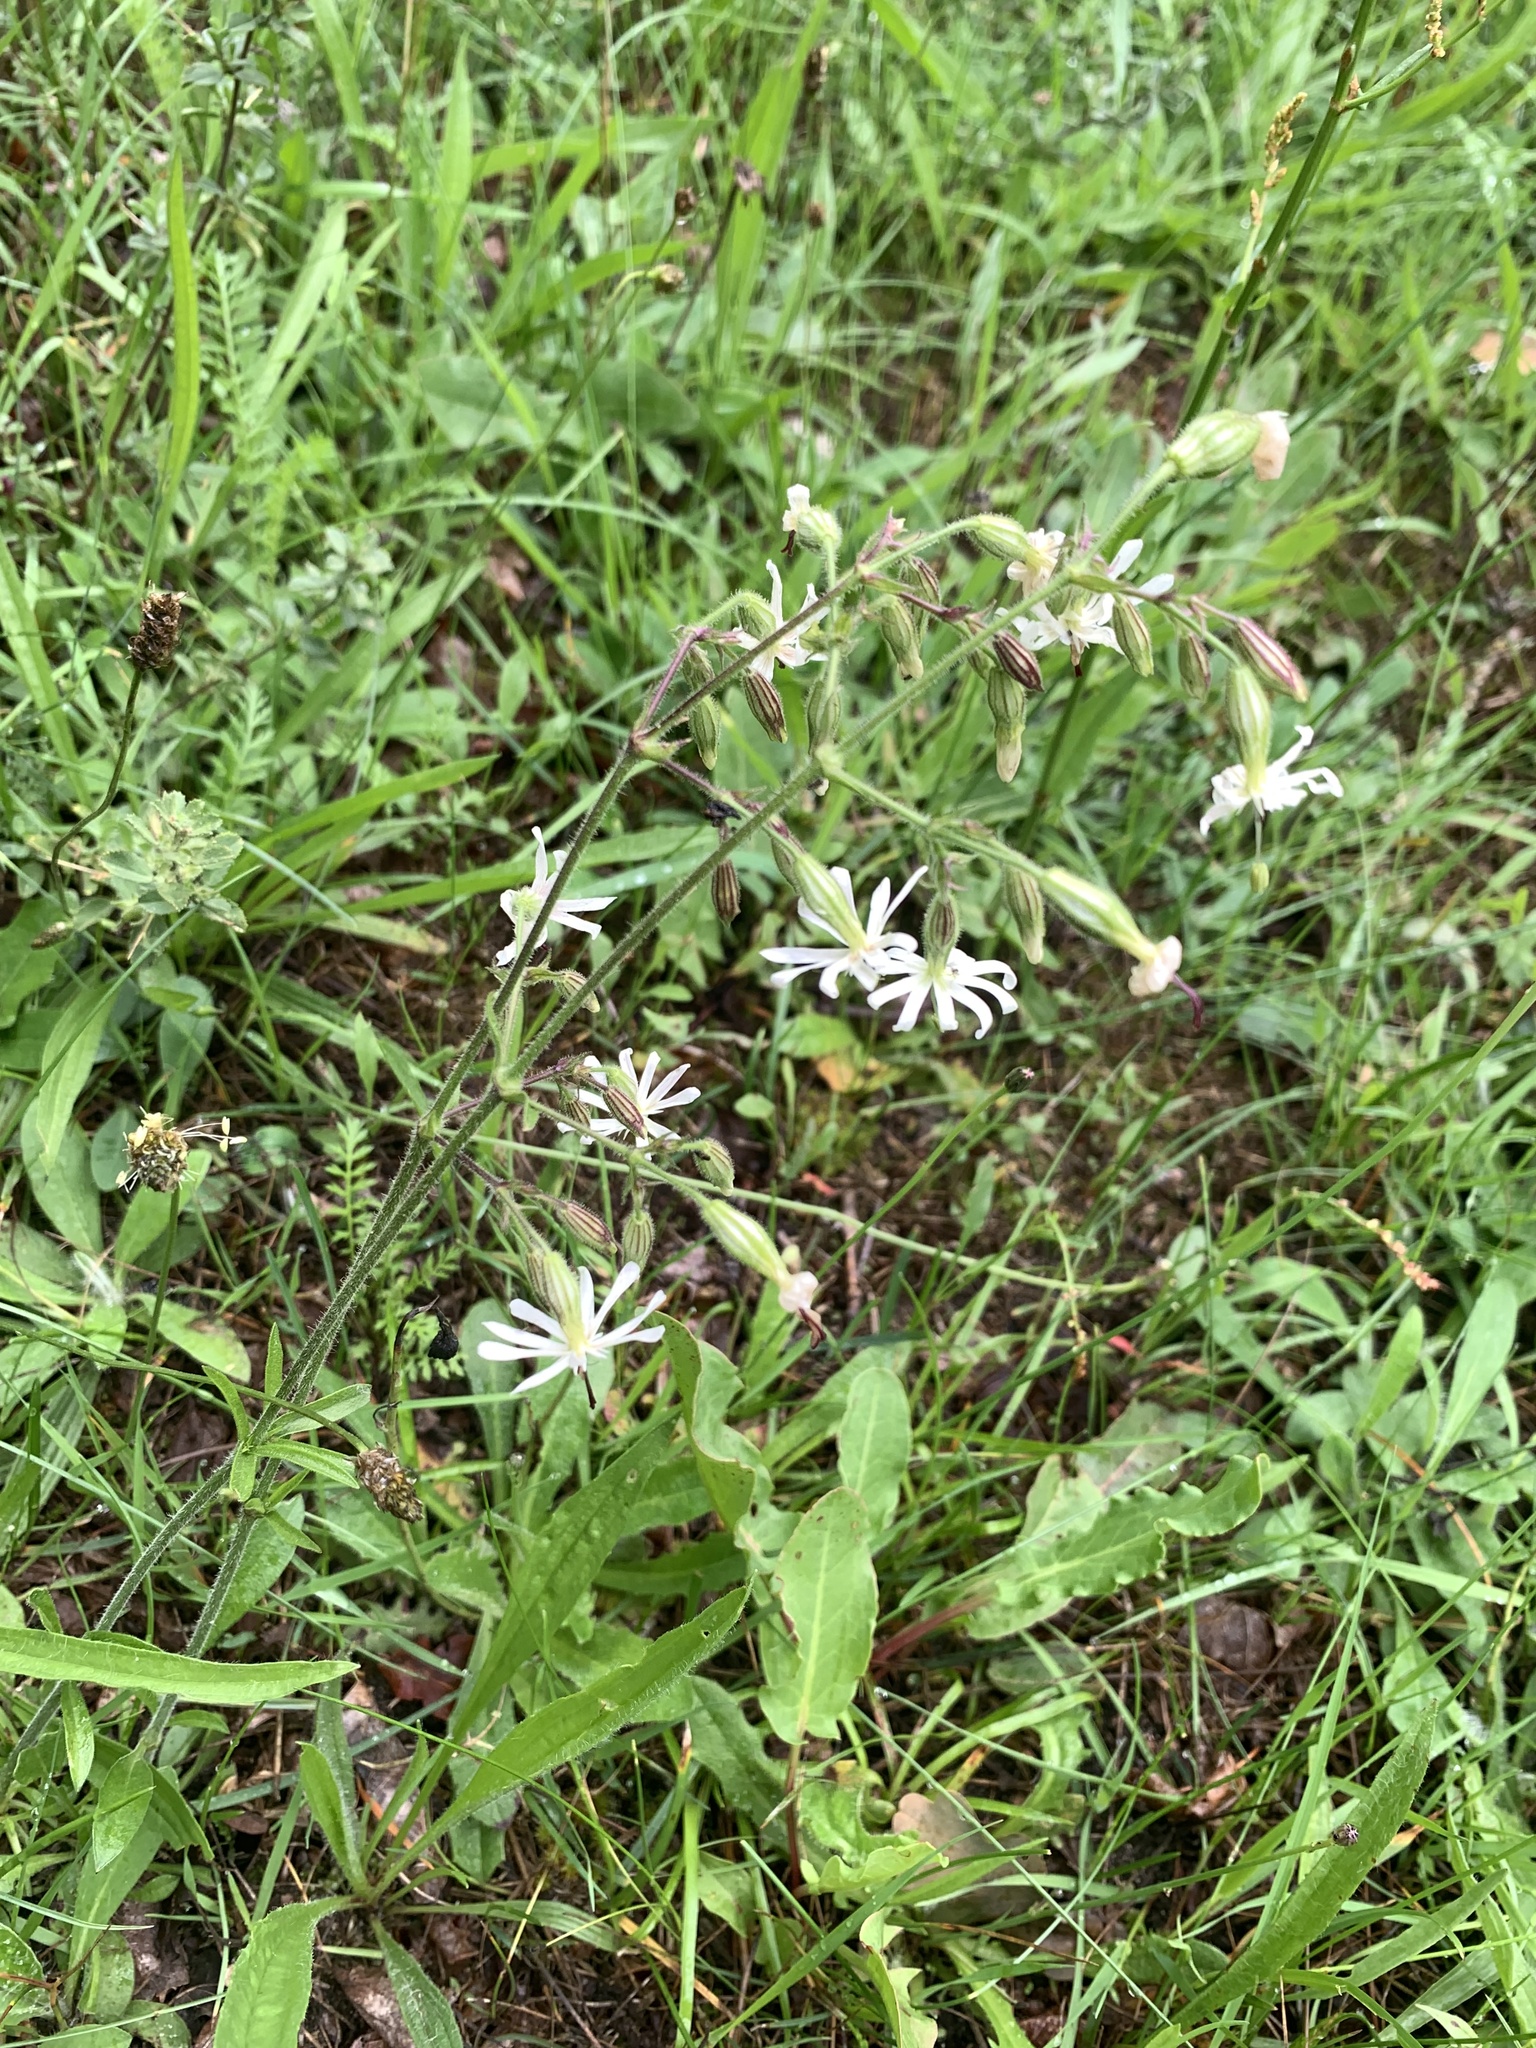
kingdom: Plantae
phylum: Tracheophyta
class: Magnoliopsida
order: Caryophyllales
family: Caryophyllaceae
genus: Silene
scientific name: Silene nutans
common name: Nottingham catchfly
